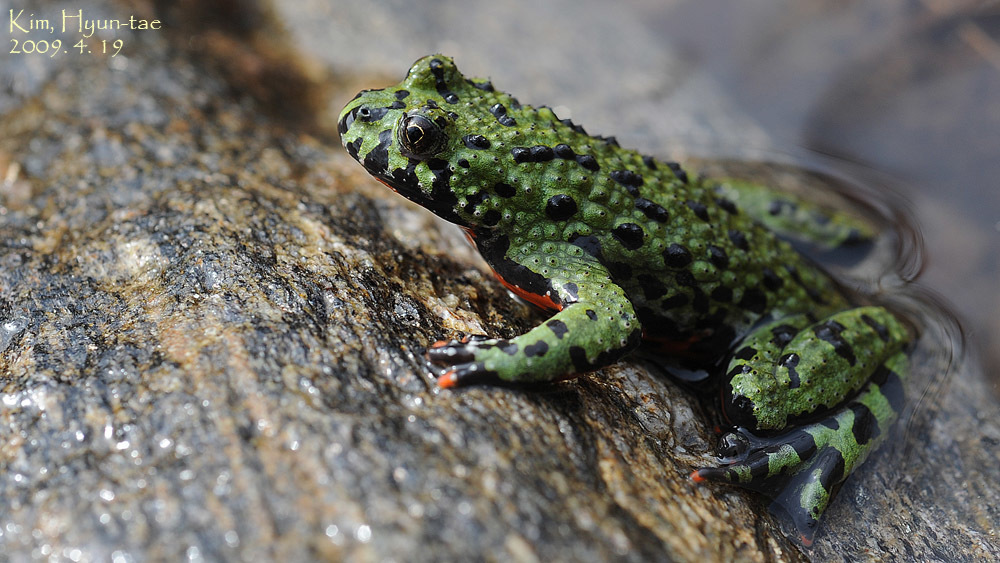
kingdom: Animalia
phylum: Chordata
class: Amphibia
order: Anura
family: Bombinatoridae
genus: Bombina
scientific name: Bombina orientalis
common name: Oriental firebelly toad
